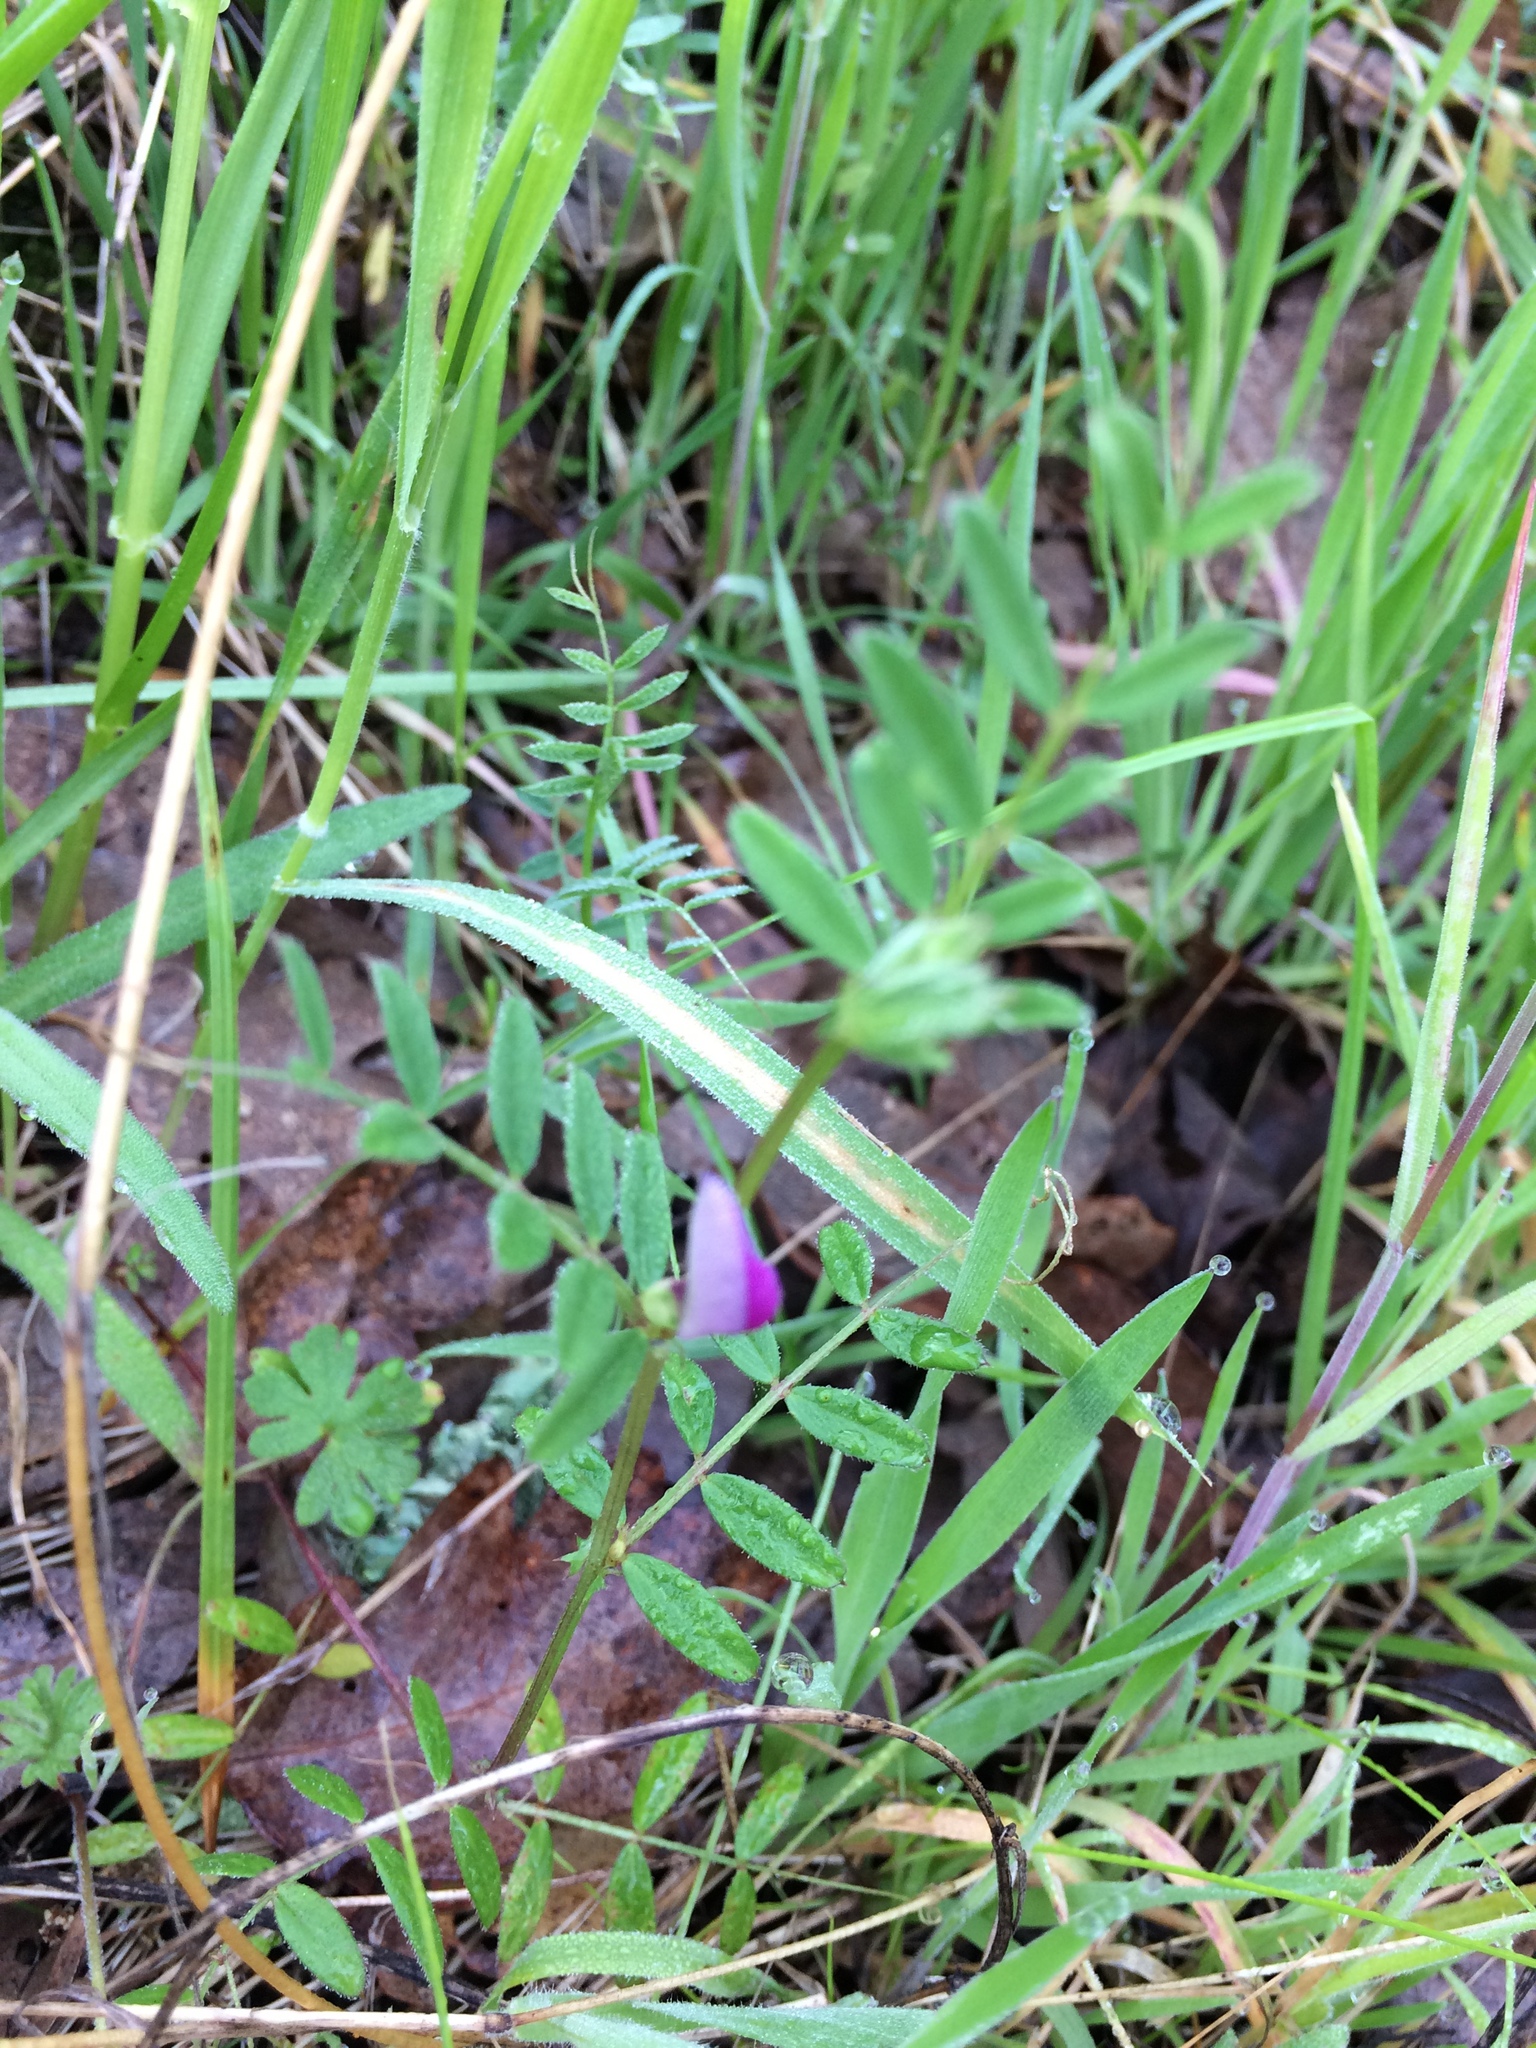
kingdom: Plantae
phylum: Tracheophyta
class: Magnoliopsida
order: Fabales
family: Fabaceae
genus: Vicia
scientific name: Vicia sativa
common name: Garden vetch
